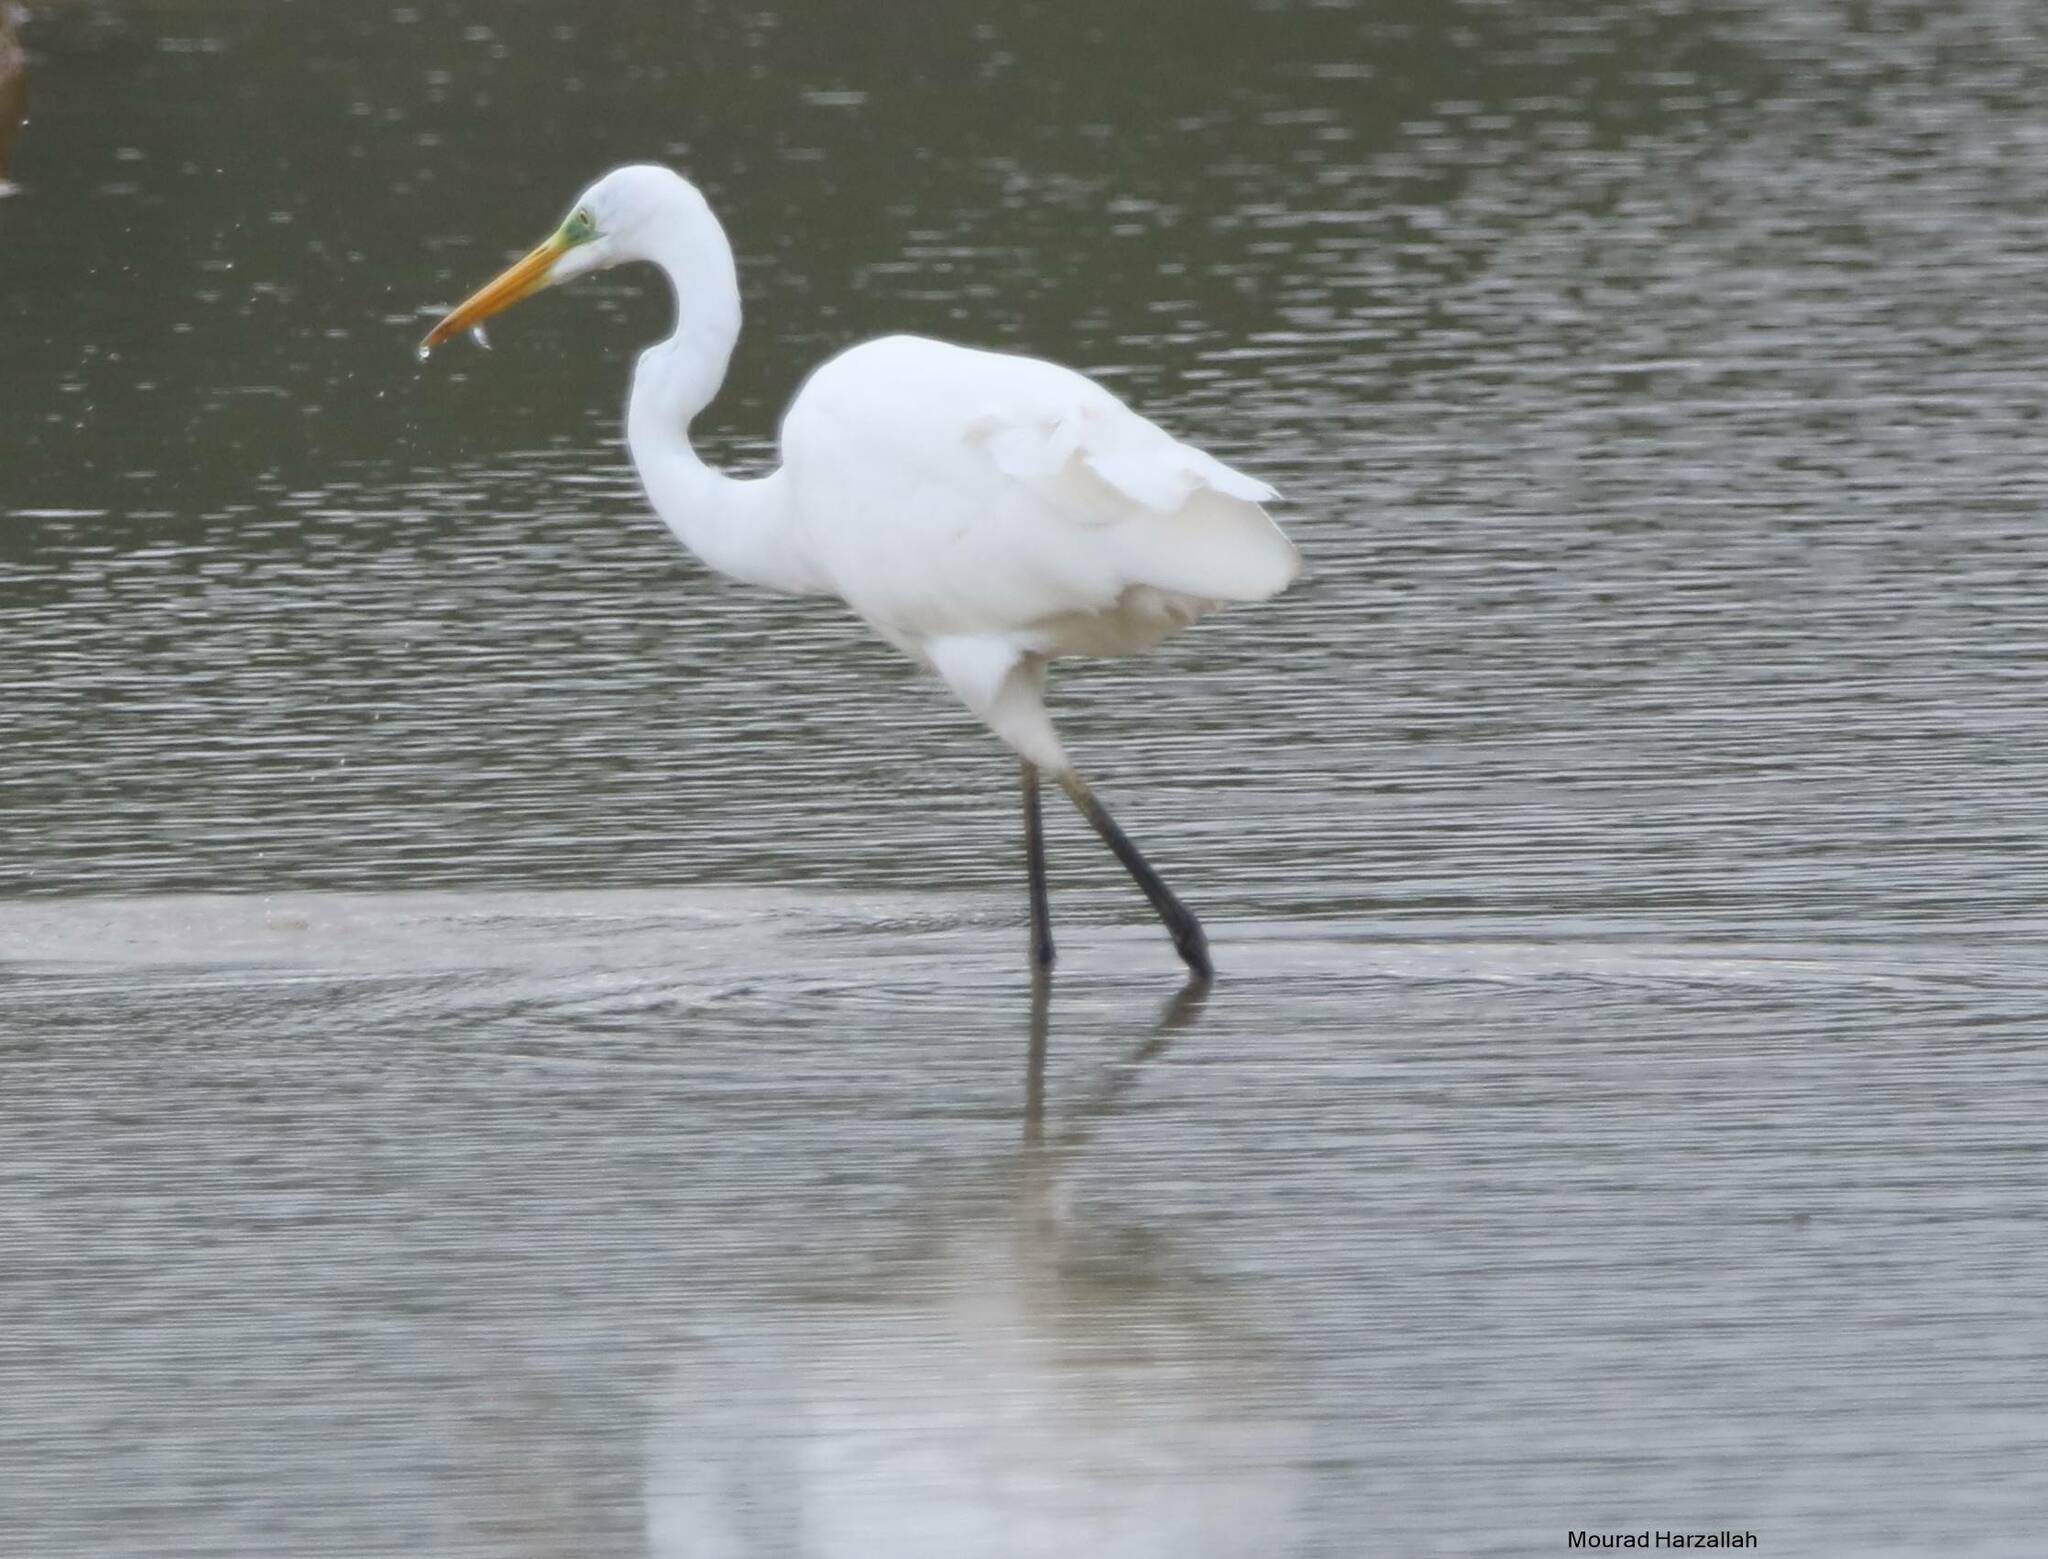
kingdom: Animalia
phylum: Chordata
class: Aves
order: Pelecaniformes
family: Ardeidae
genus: Ardea
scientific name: Ardea alba
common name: Great egret
